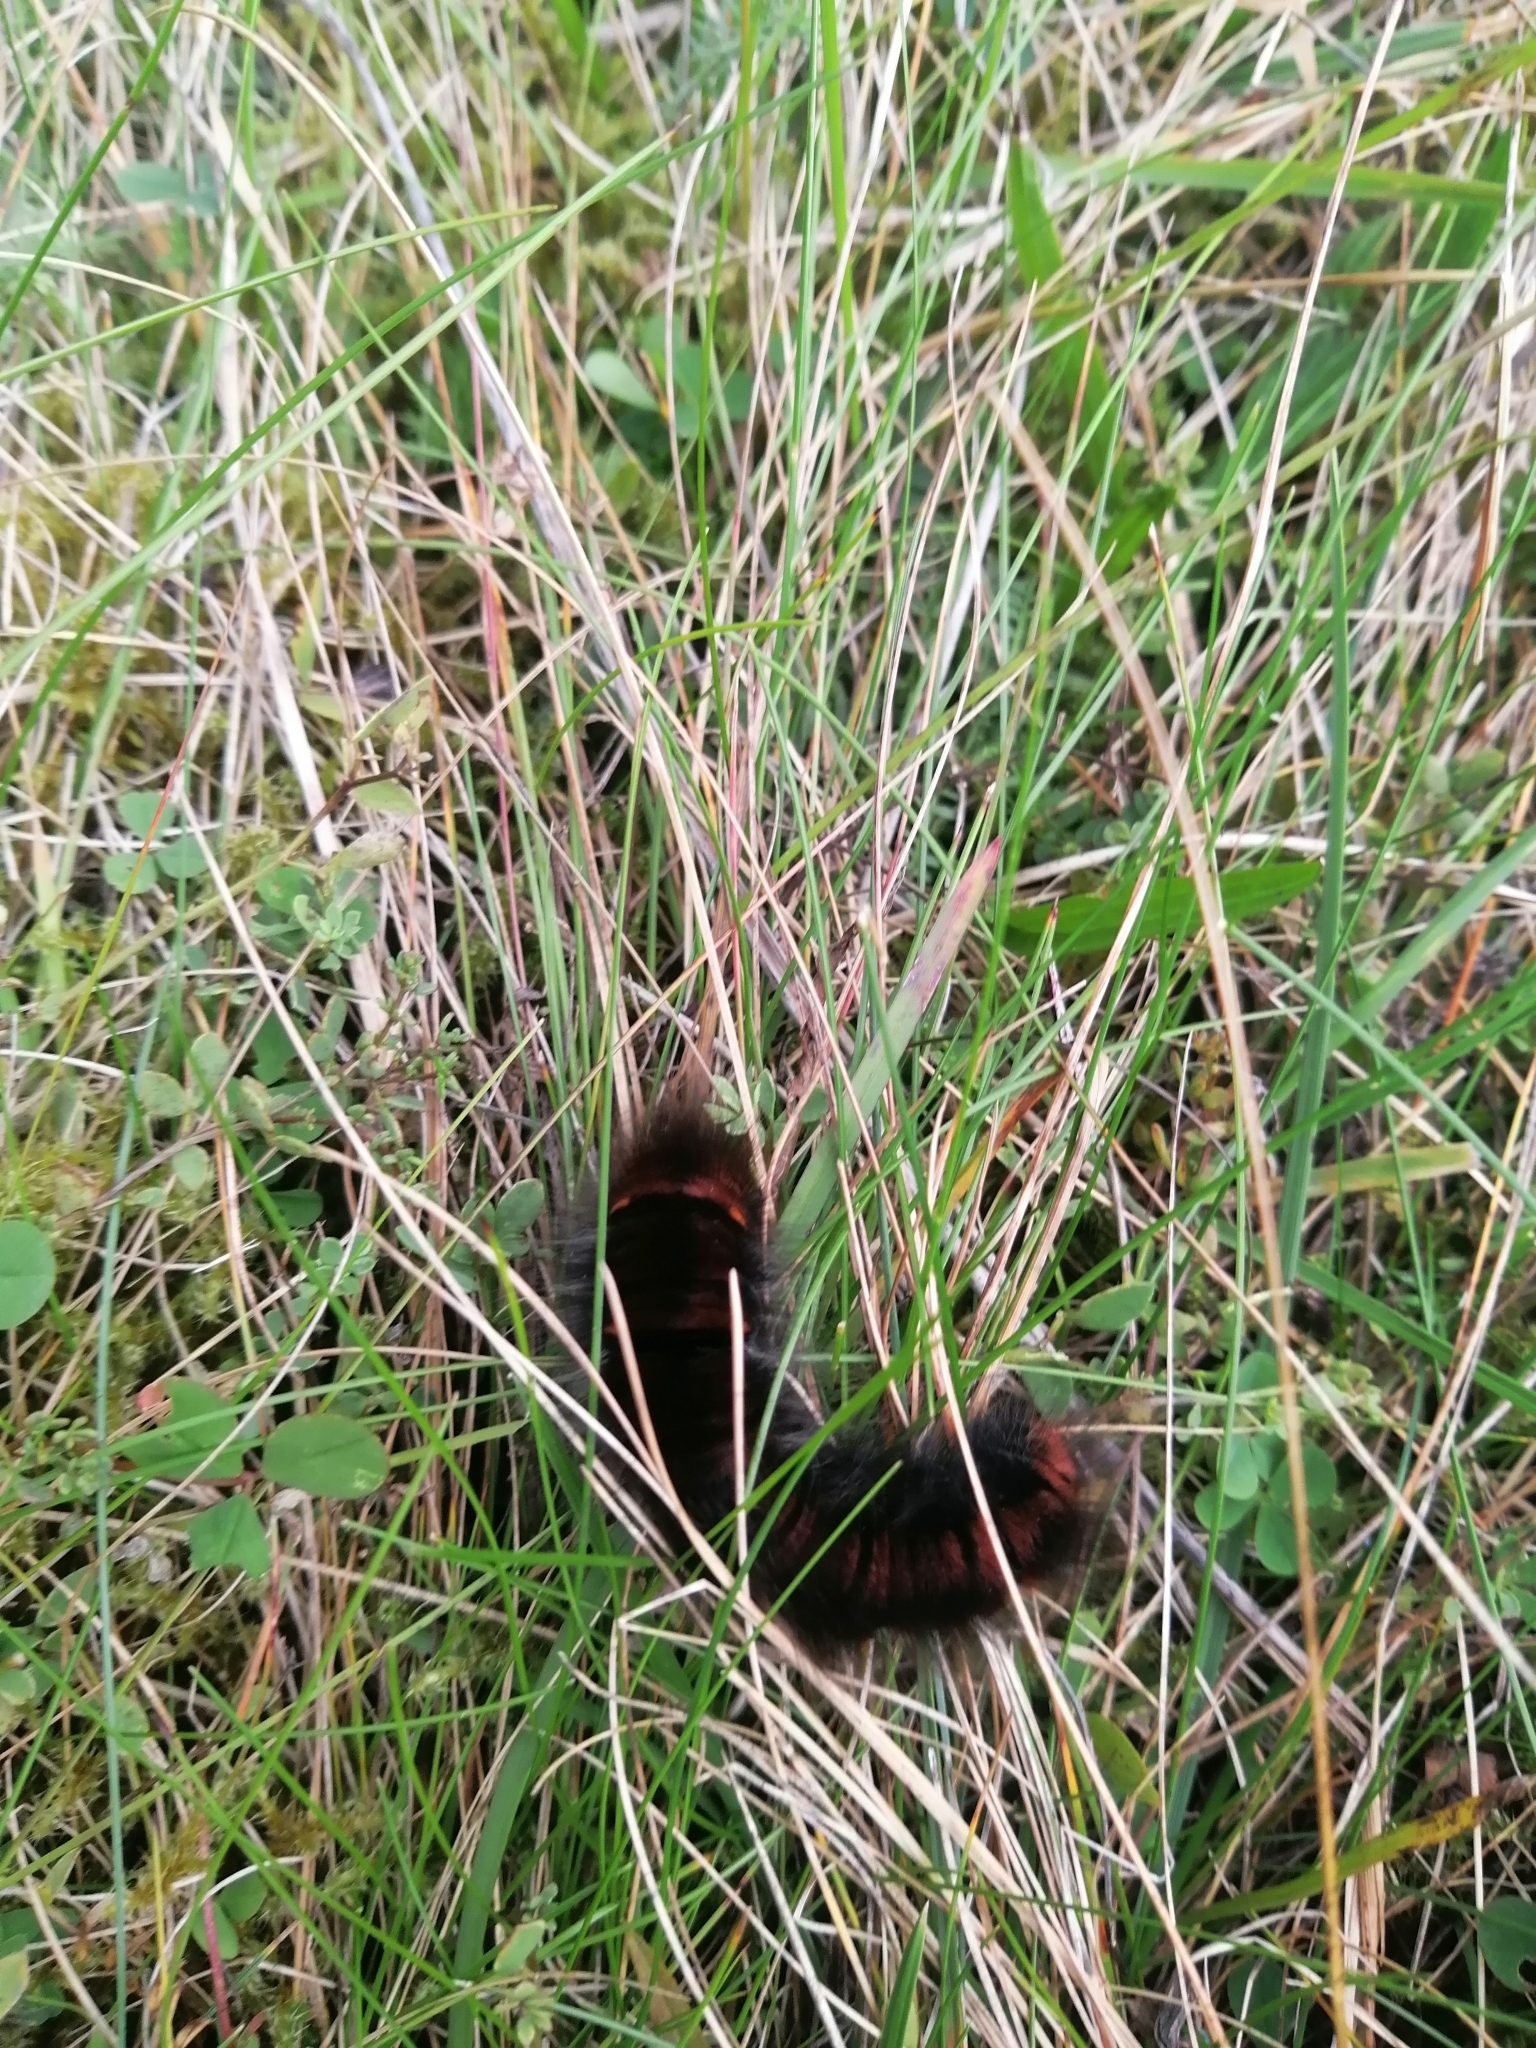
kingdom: Animalia
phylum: Arthropoda
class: Insecta
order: Lepidoptera
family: Lasiocampidae
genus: Macrothylacia
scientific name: Macrothylacia rubi
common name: Fox moth
